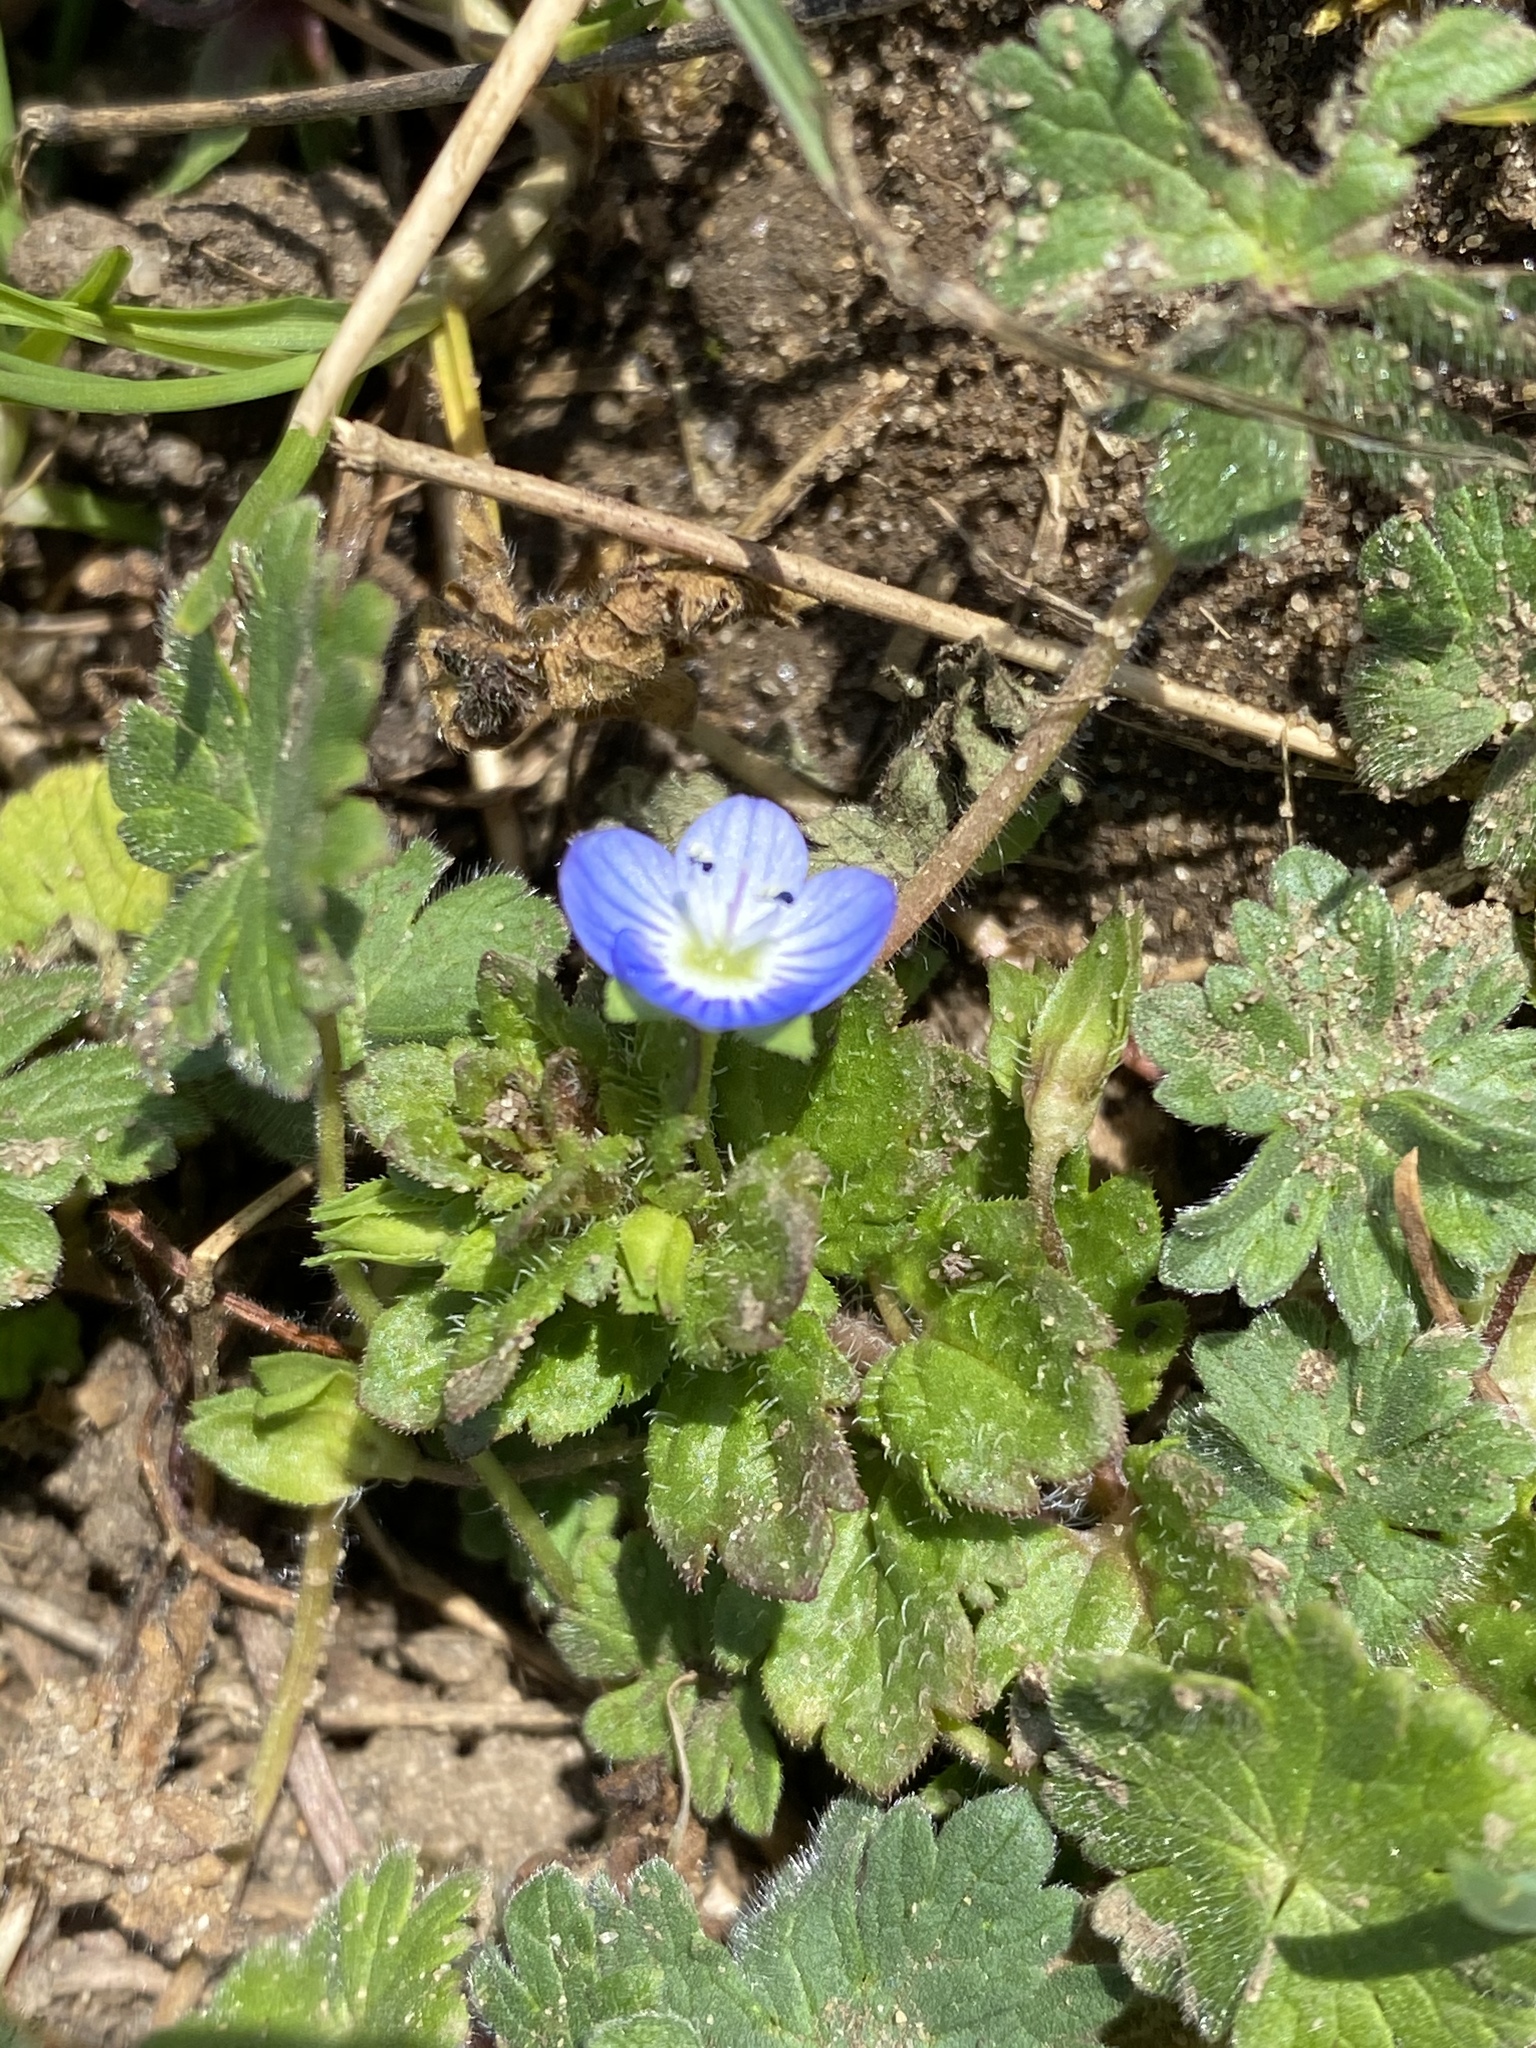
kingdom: Plantae
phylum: Tracheophyta
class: Magnoliopsida
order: Lamiales
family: Plantaginaceae
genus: Veronica
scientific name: Veronica persica
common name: Common field-speedwell
